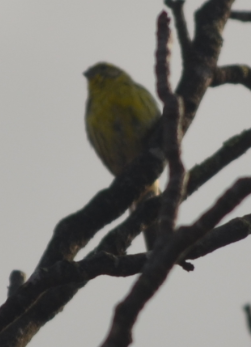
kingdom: Animalia
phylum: Chordata
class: Aves
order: Passeriformes
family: Fringillidae
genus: Serinus
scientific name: Serinus serinus
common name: European serin
